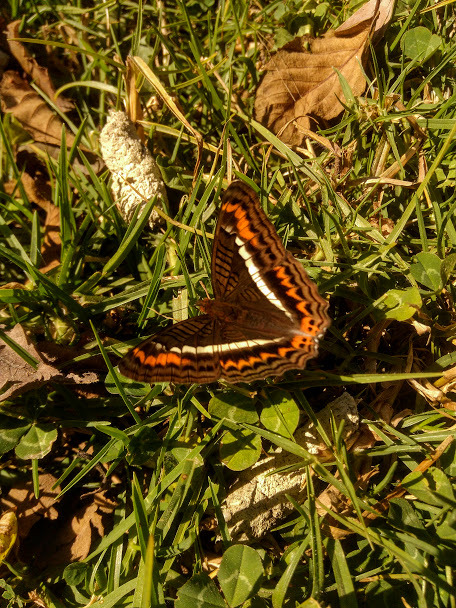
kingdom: Animalia
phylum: Arthropoda
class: Insecta
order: Lepidoptera
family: Nymphalidae
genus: Limenitis
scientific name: Limenitis corcyra
